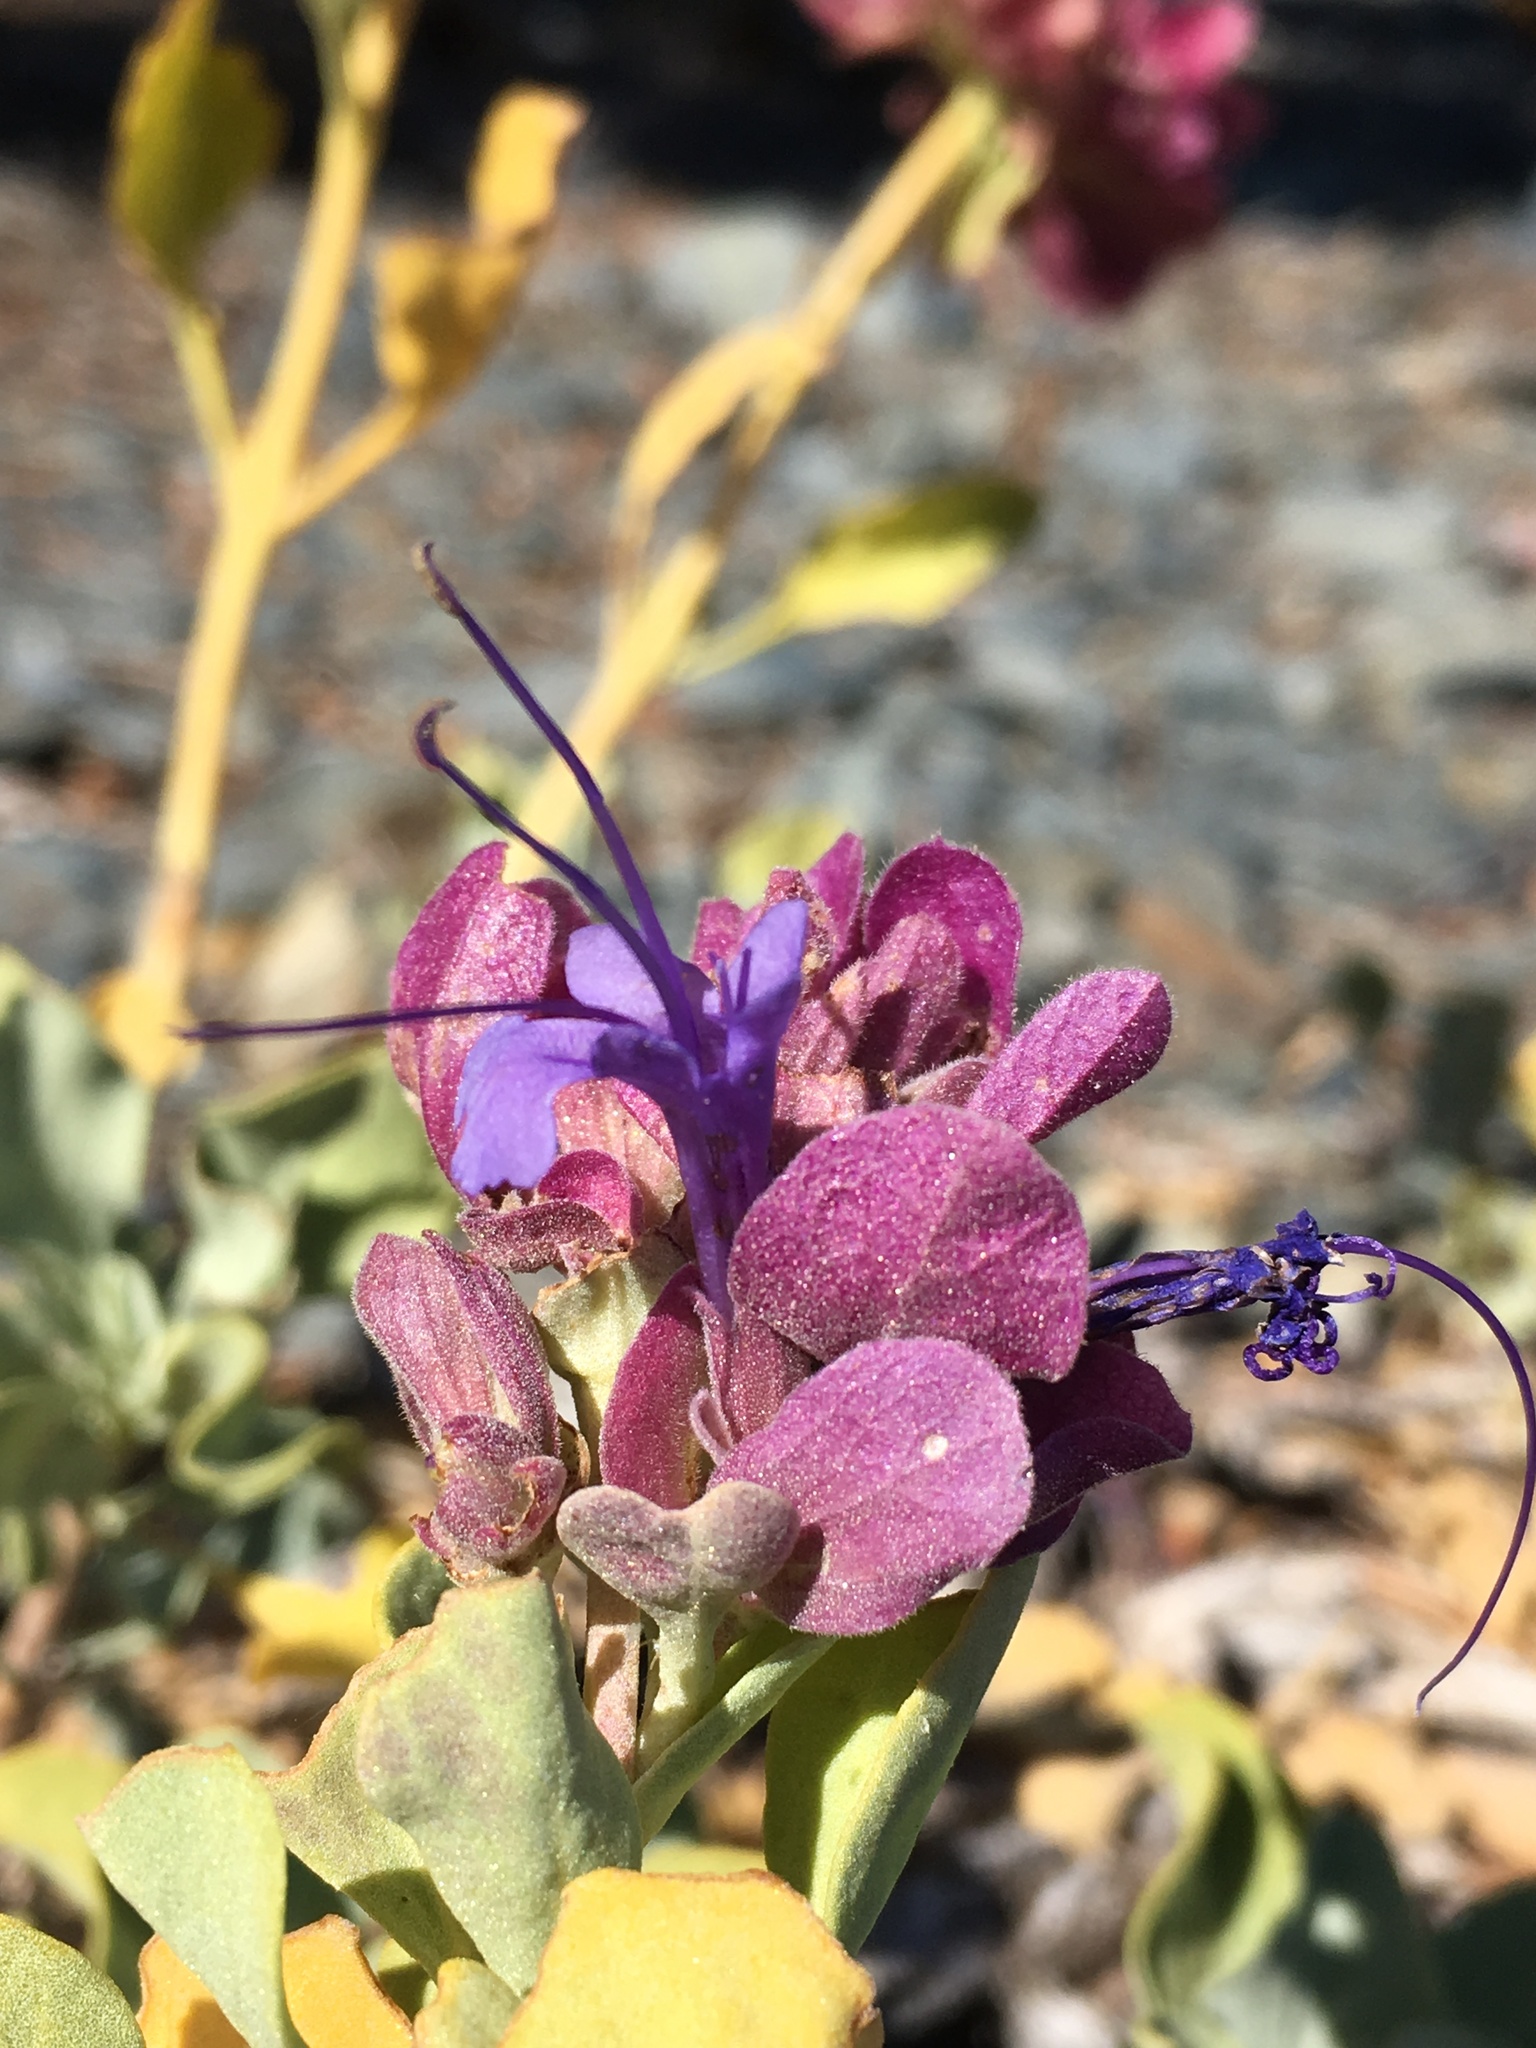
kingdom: Plantae
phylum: Tracheophyta
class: Magnoliopsida
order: Lamiales
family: Lamiaceae
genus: Salvia
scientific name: Salvia pachyphylla
